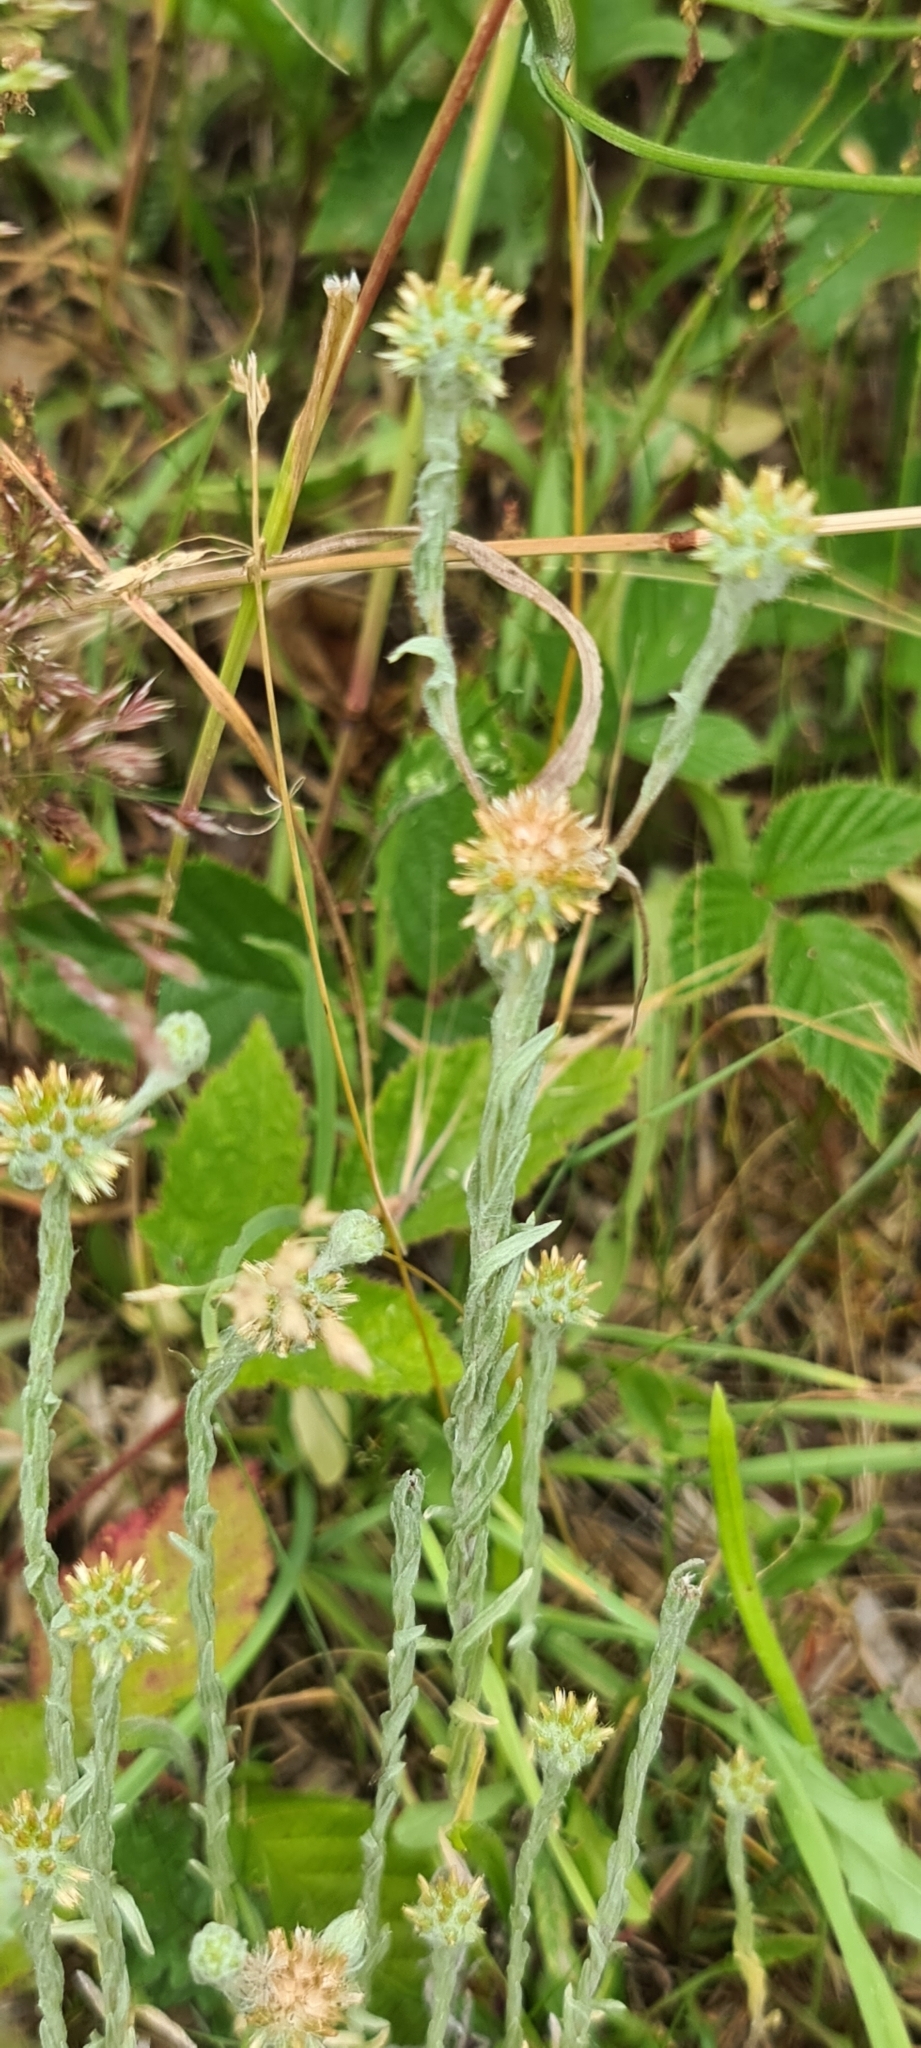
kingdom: Plantae
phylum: Tracheophyta
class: Magnoliopsida
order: Asterales
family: Asteraceae
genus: Filago
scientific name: Filago germanica
